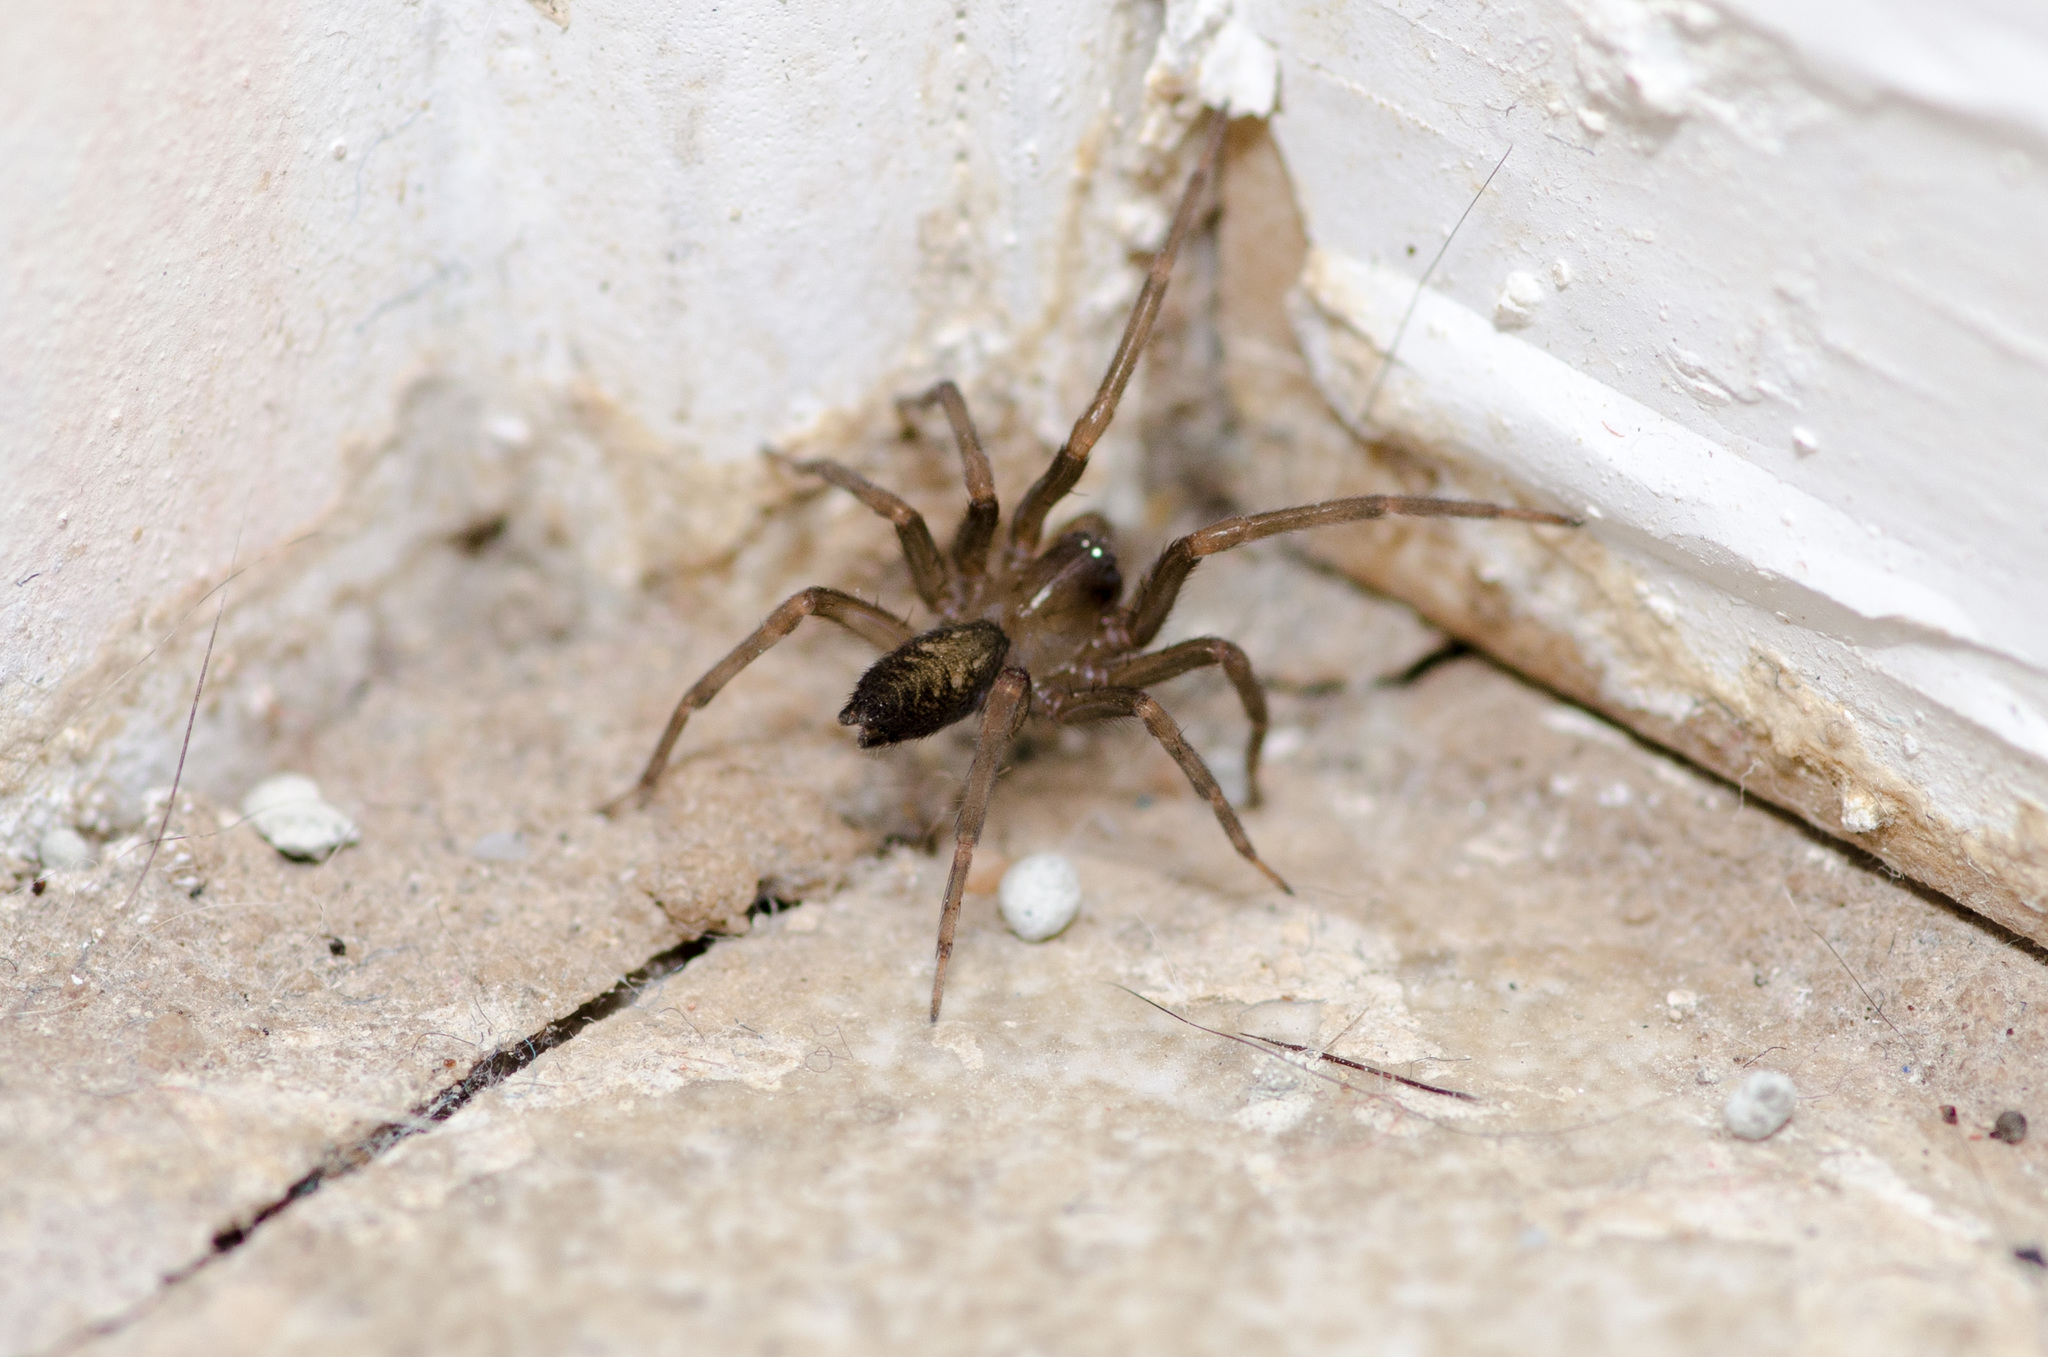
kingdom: Animalia
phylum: Arthropoda
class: Arachnida
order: Araneae
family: Desidae
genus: Metaltella
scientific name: Metaltella simoni
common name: Cribellate spider
